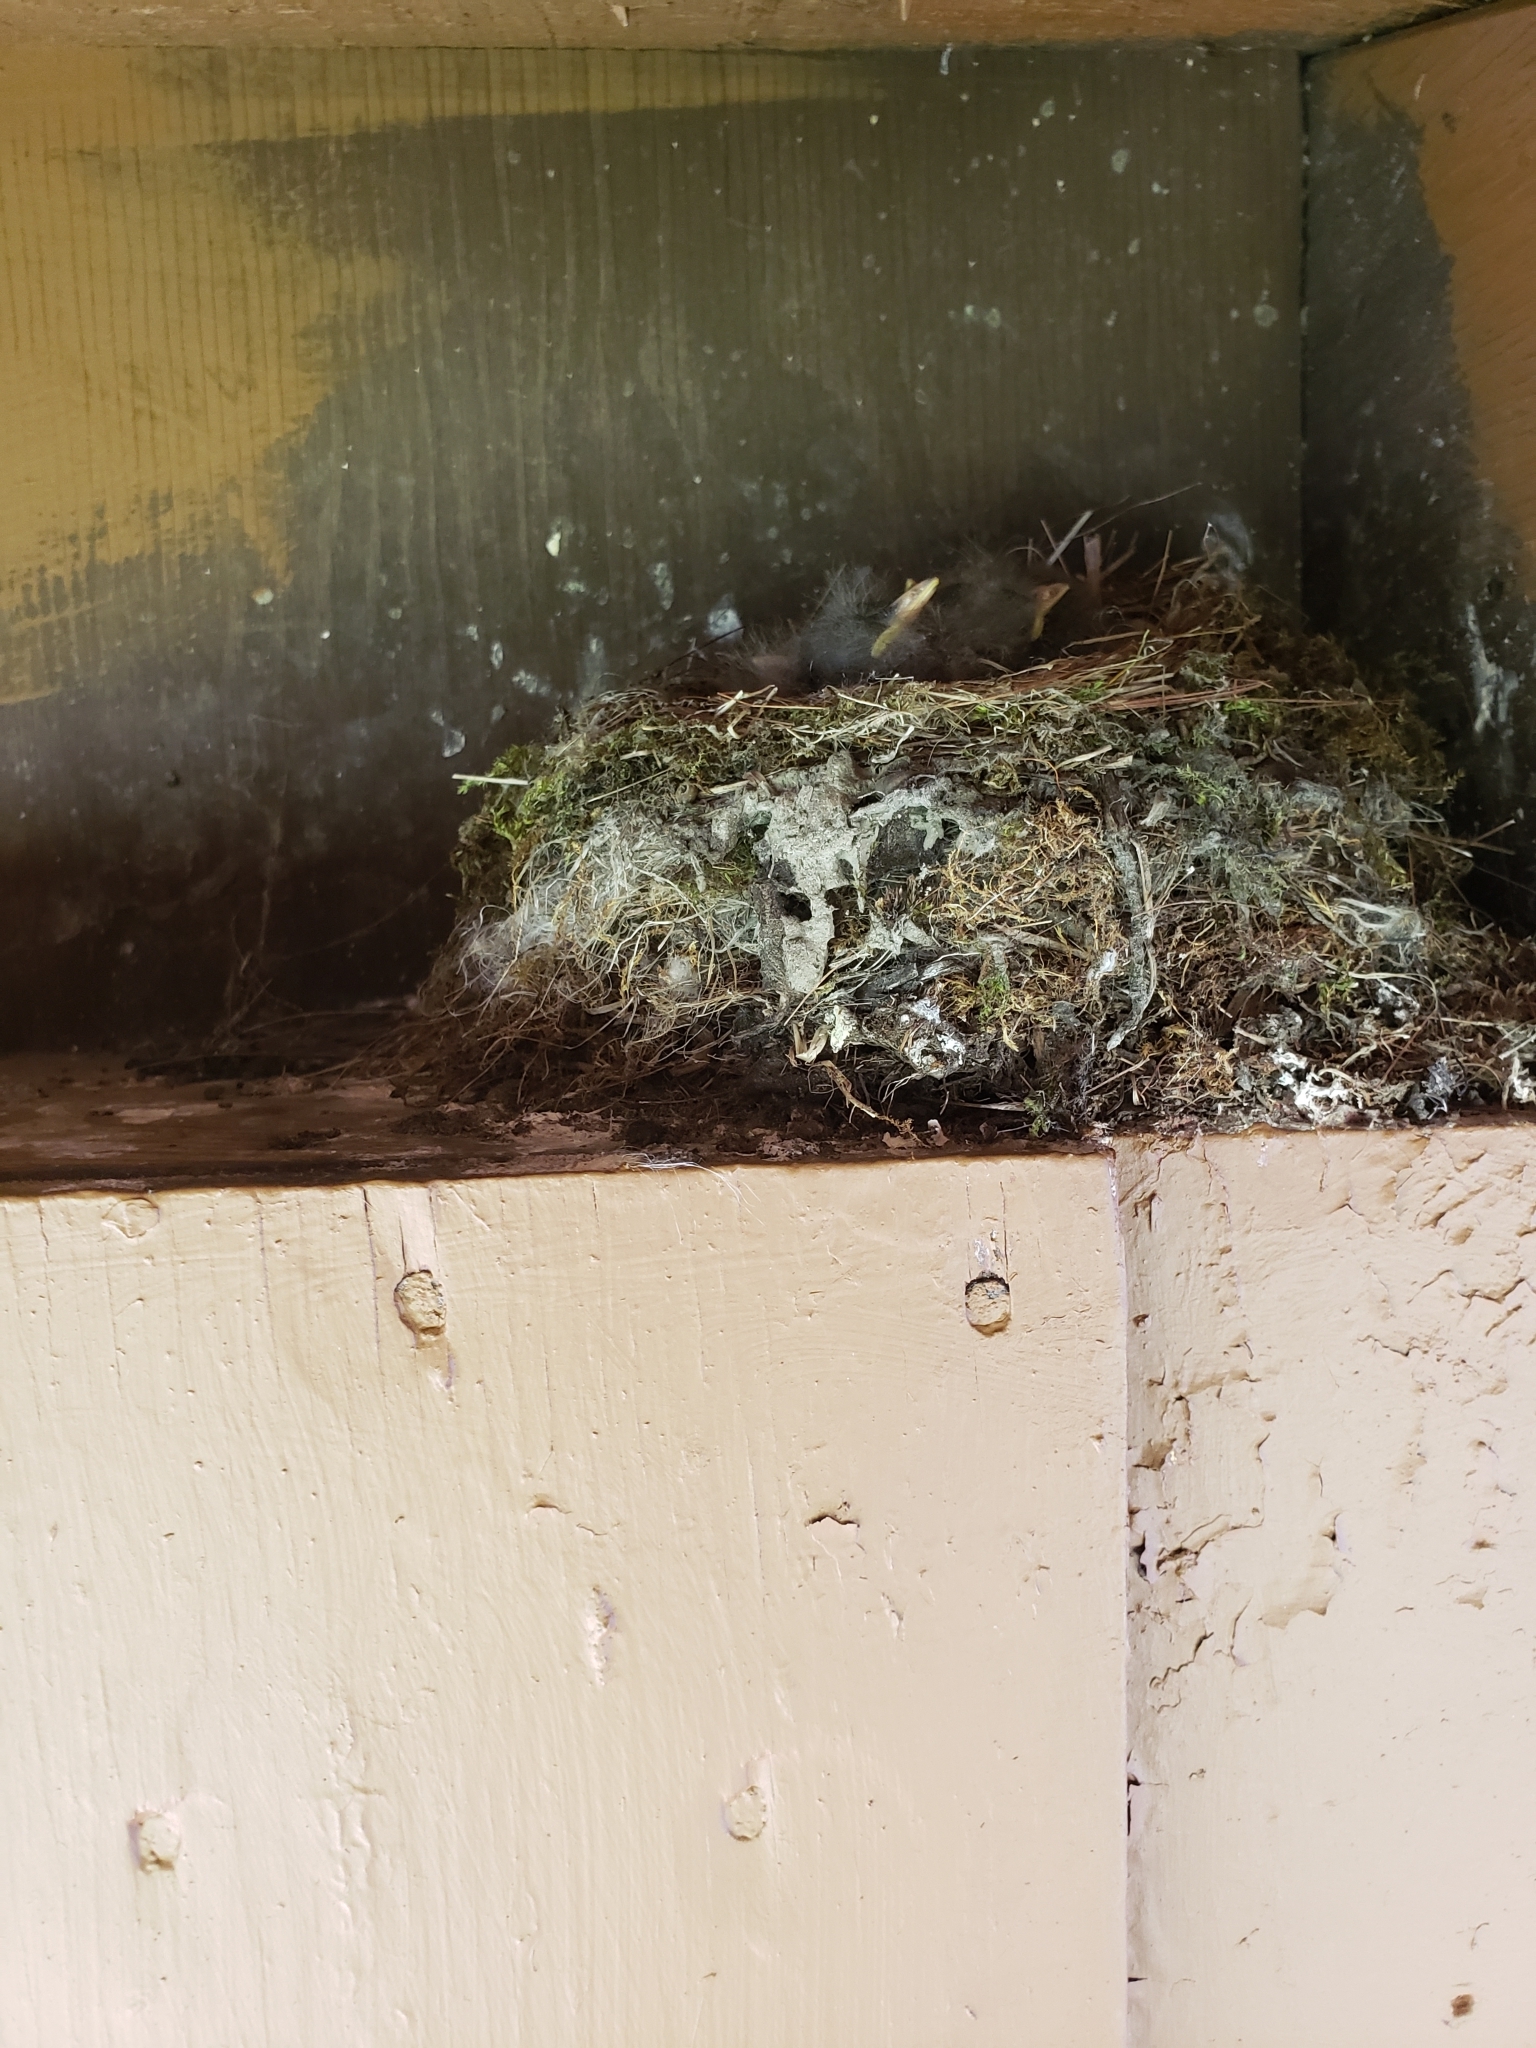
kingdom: Animalia
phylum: Chordata
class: Aves
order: Passeriformes
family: Tyrannidae
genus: Sayornis
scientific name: Sayornis phoebe
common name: Eastern phoebe
